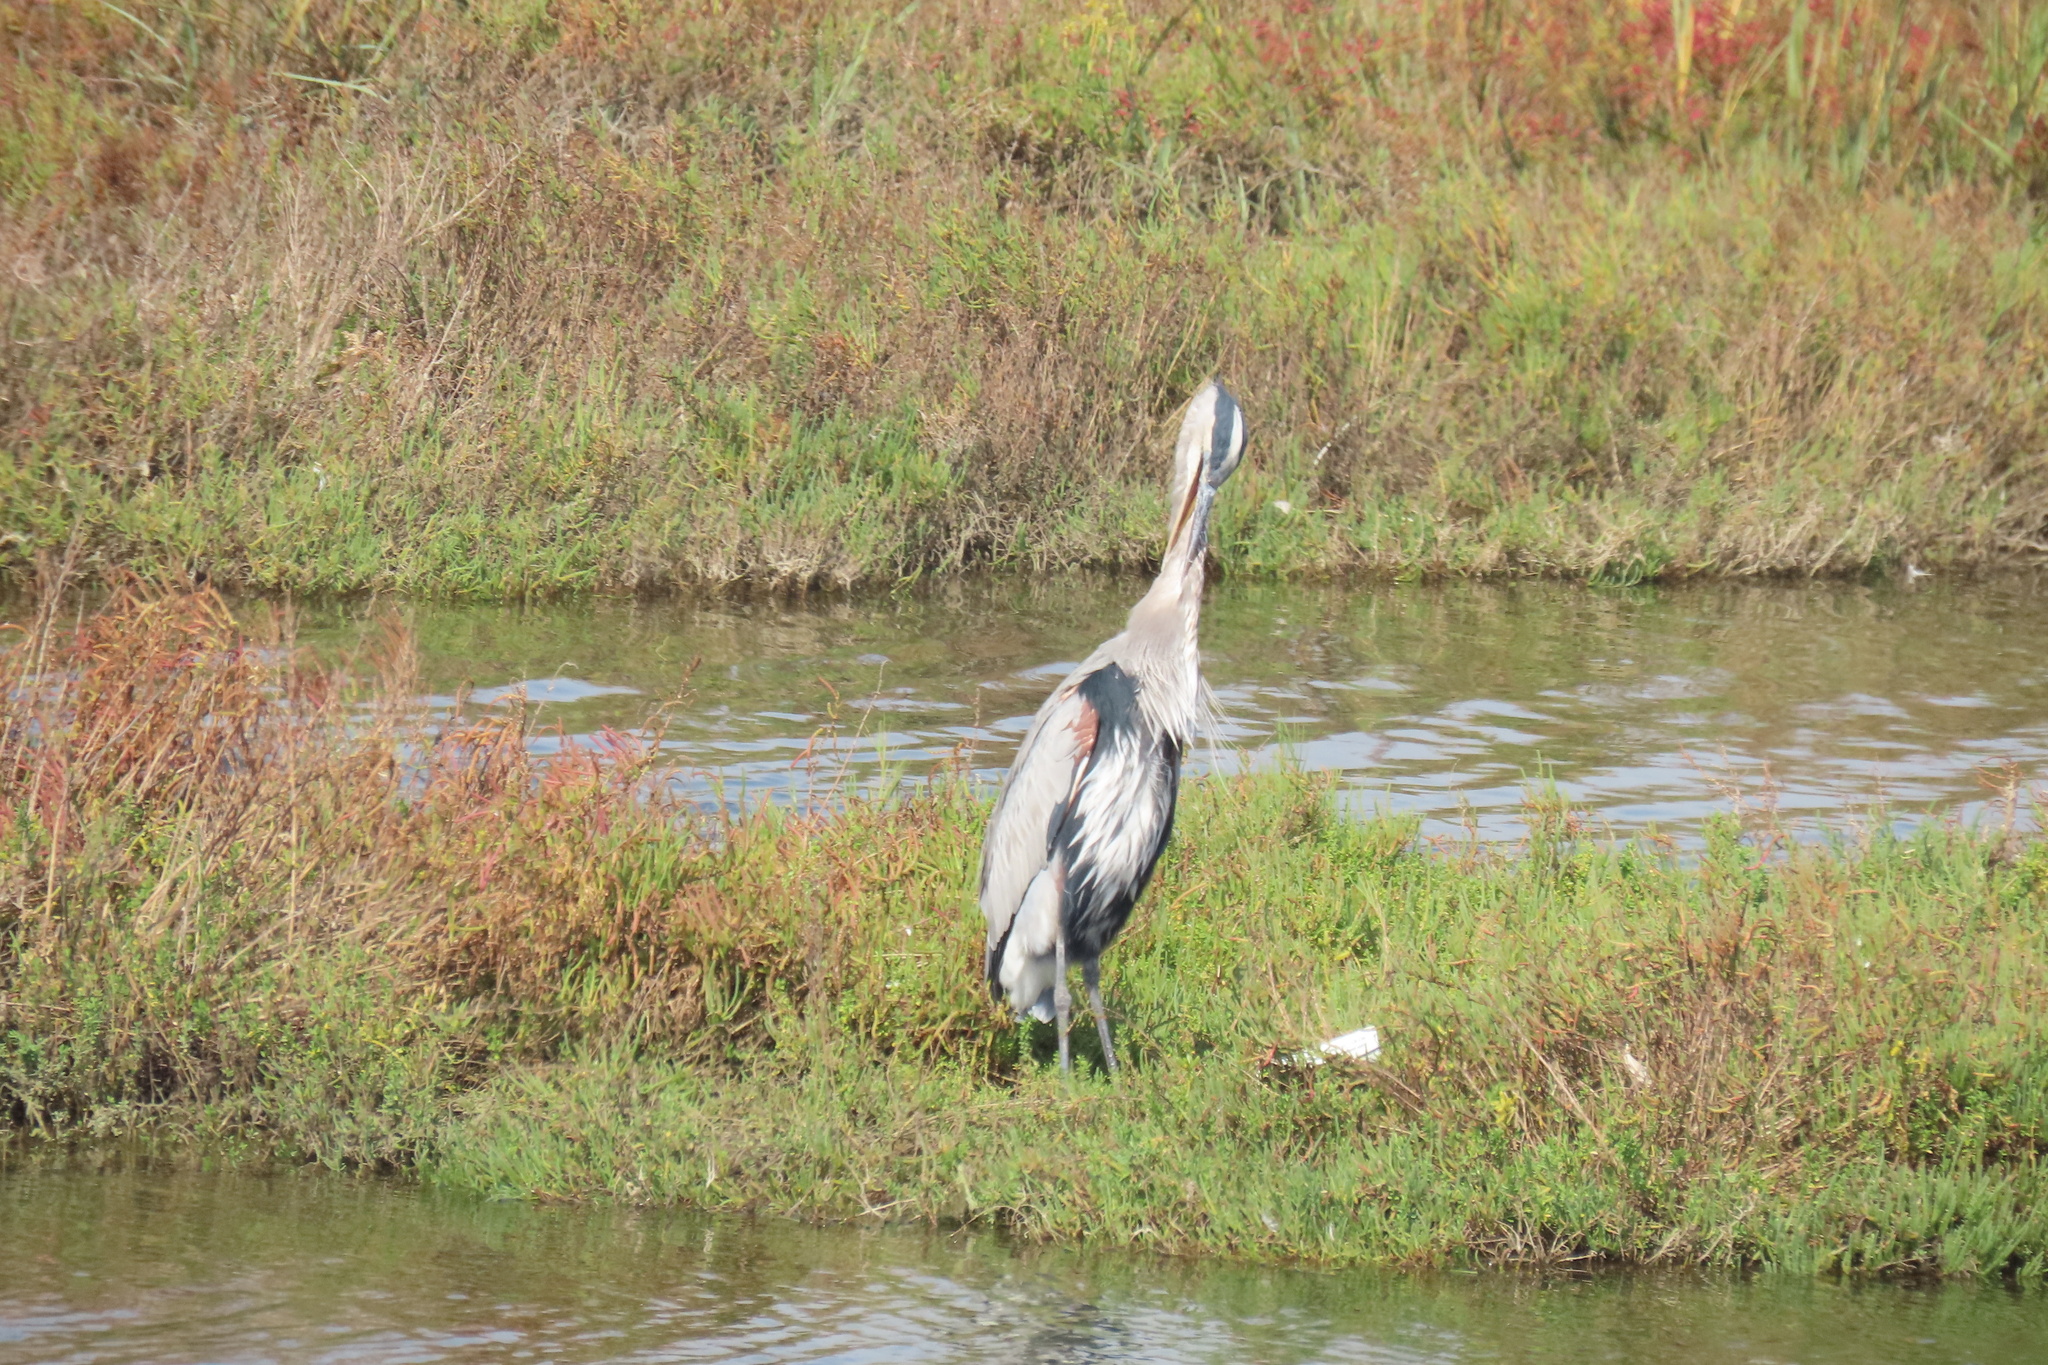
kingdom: Animalia
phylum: Chordata
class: Aves
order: Pelecaniformes
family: Ardeidae
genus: Ardea
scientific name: Ardea herodias
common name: Great blue heron
